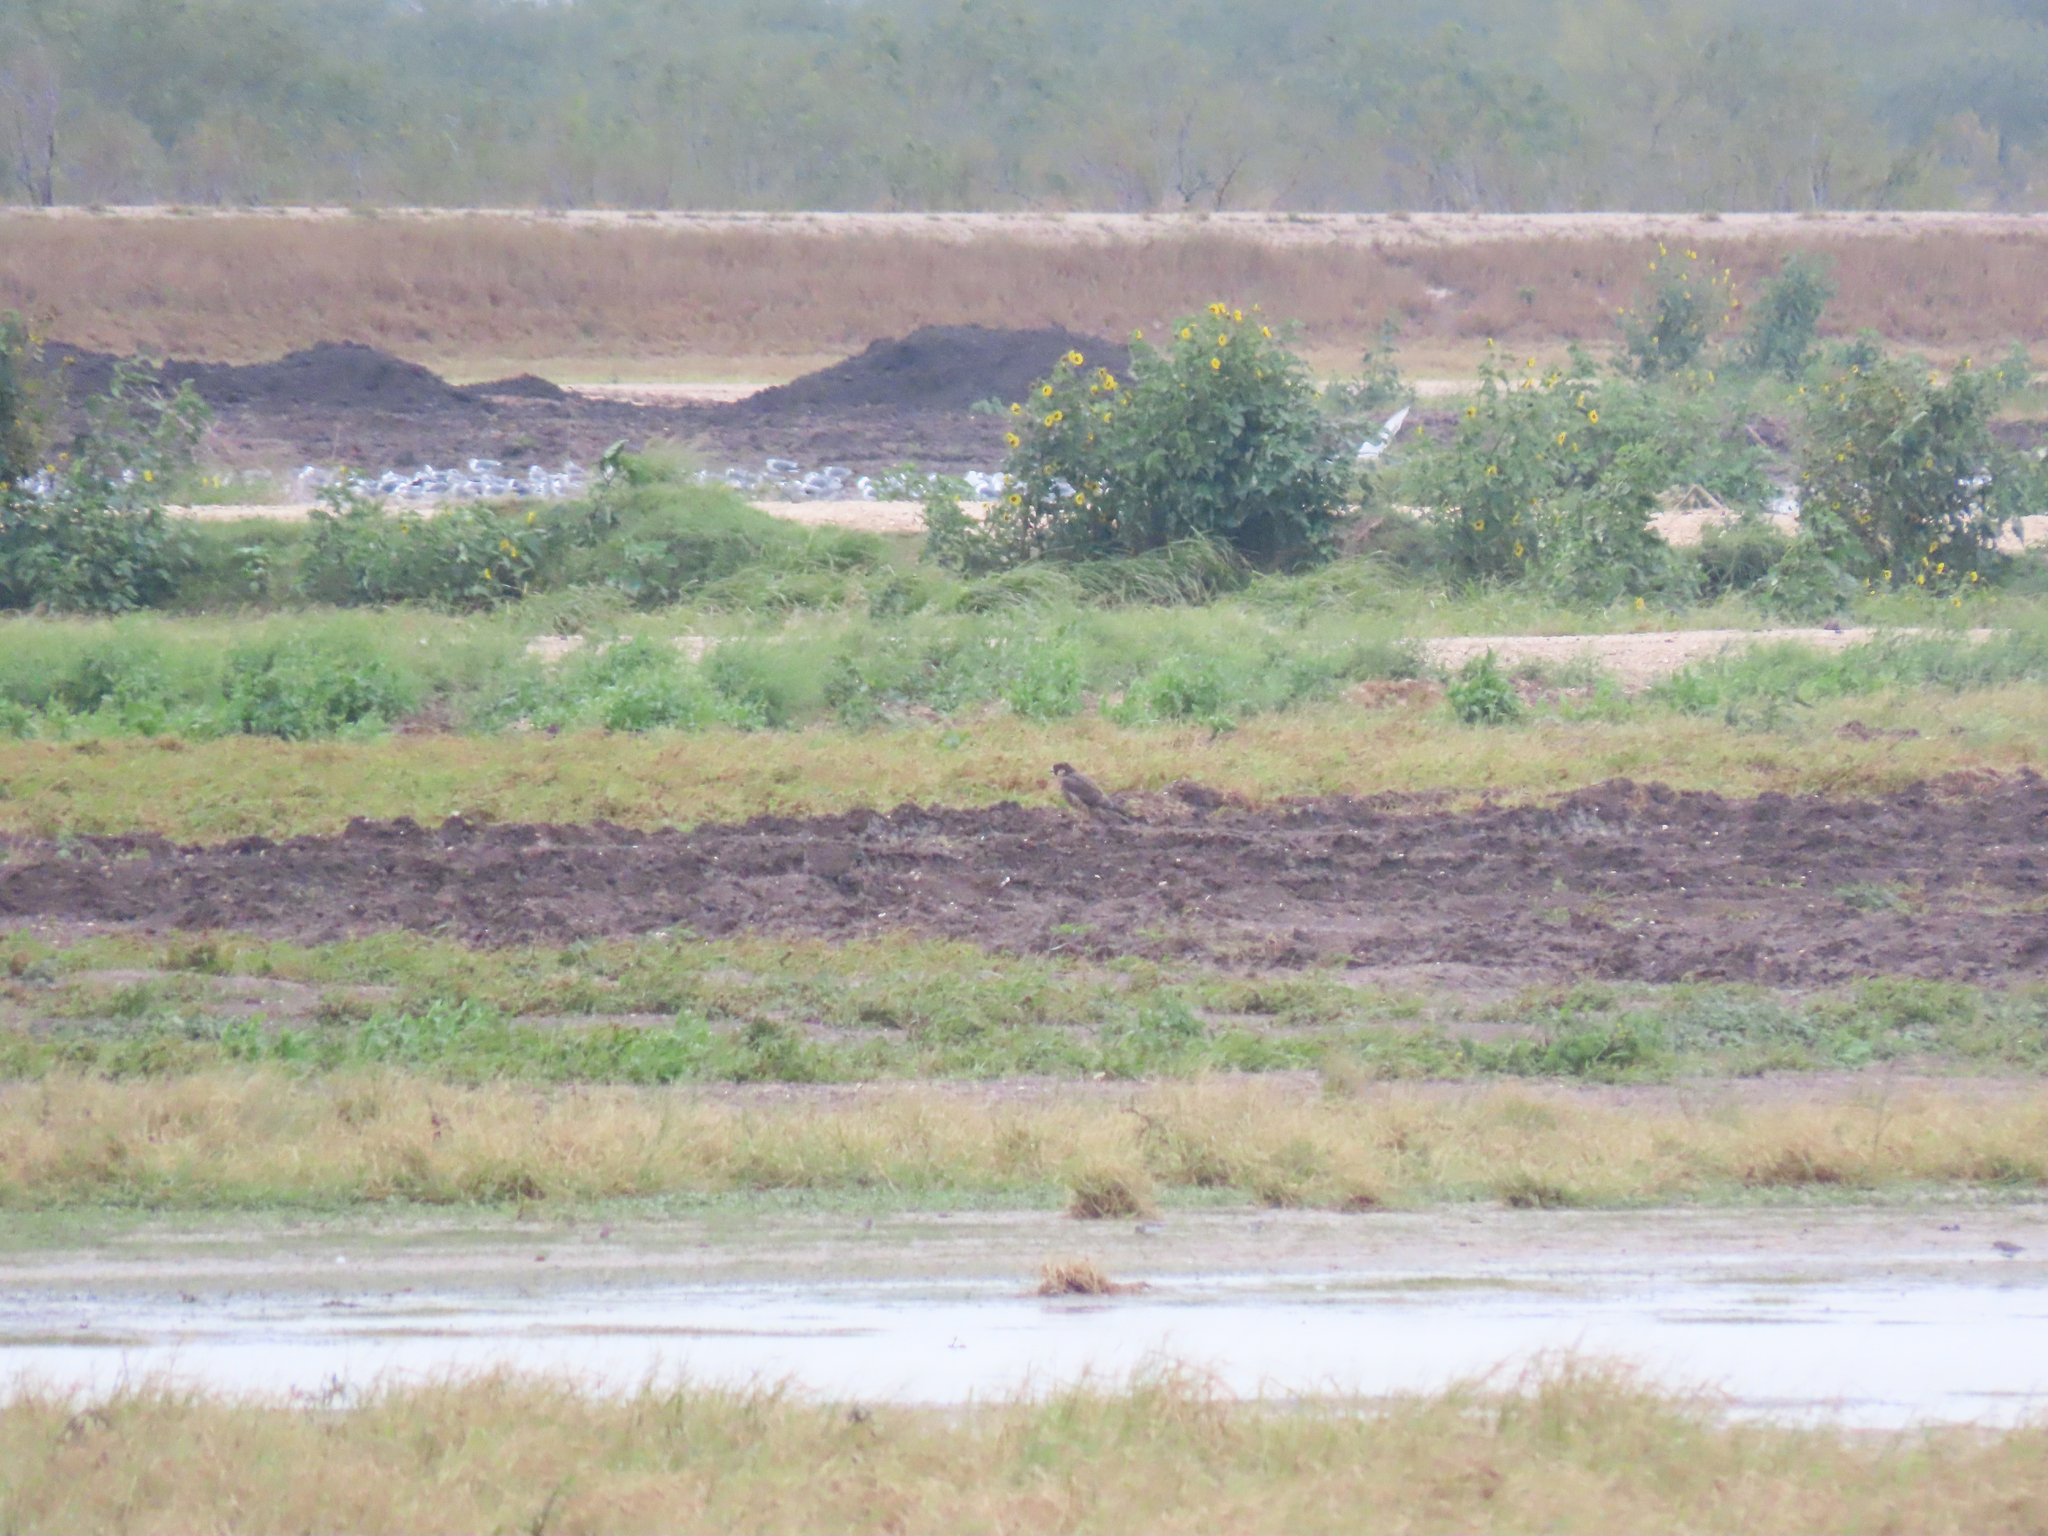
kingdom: Animalia
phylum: Chordata
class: Aves
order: Falconiformes
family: Falconidae
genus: Falco
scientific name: Falco peregrinus
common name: Peregrine falcon
